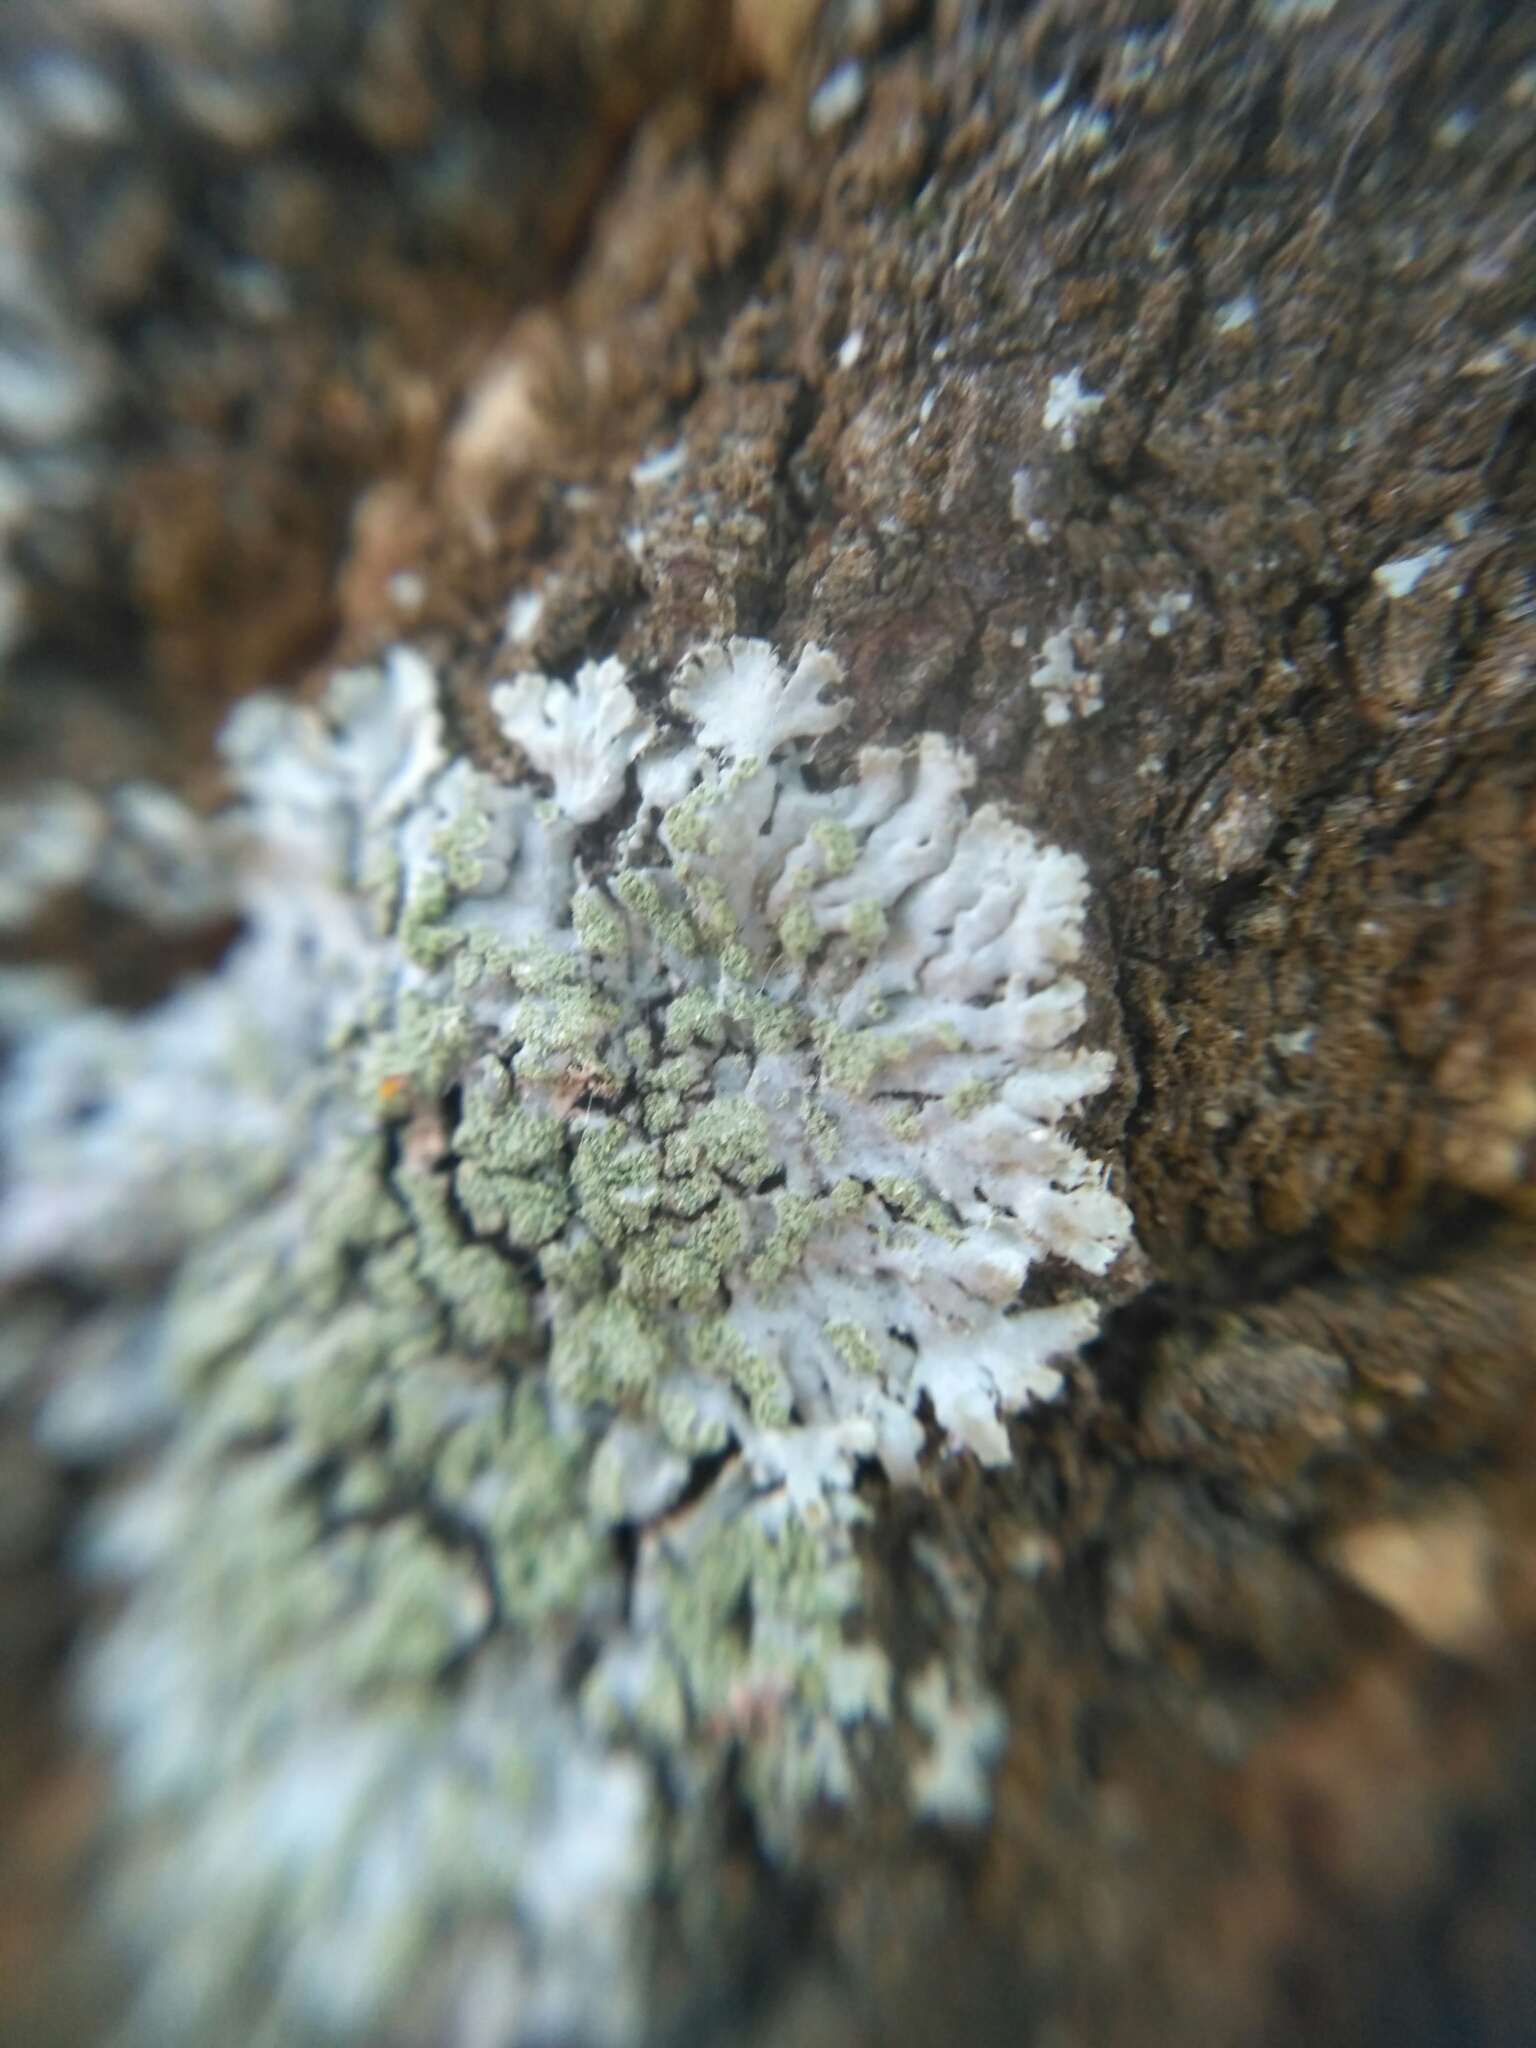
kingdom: Fungi
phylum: Ascomycota
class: Lecanoromycetes
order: Caliciales
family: Physciaceae
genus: Phaeophyscia
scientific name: Phaeophyscia orbicularis
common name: Mealy shadow lichen
